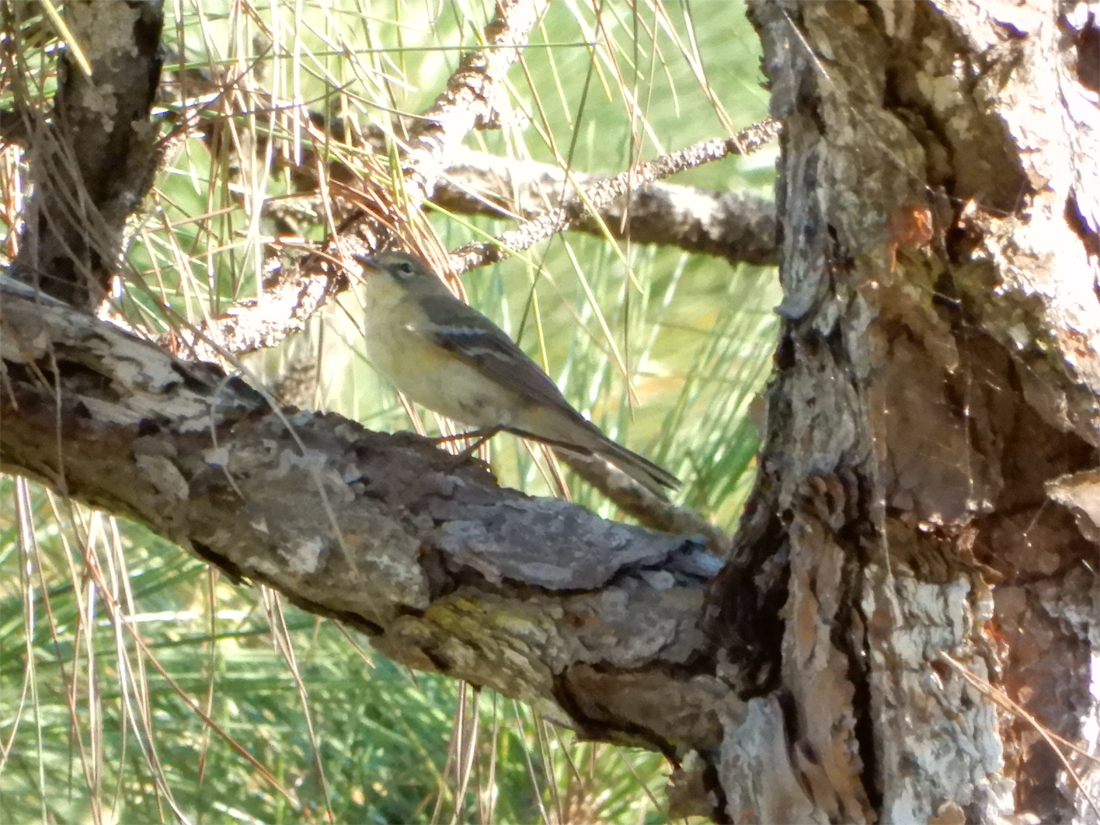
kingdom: Animalia
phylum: Chordata
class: Aves
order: Passeriformes
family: Parulidae
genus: Setophaga
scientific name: Setophaga coronata
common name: Myrtle warbler
